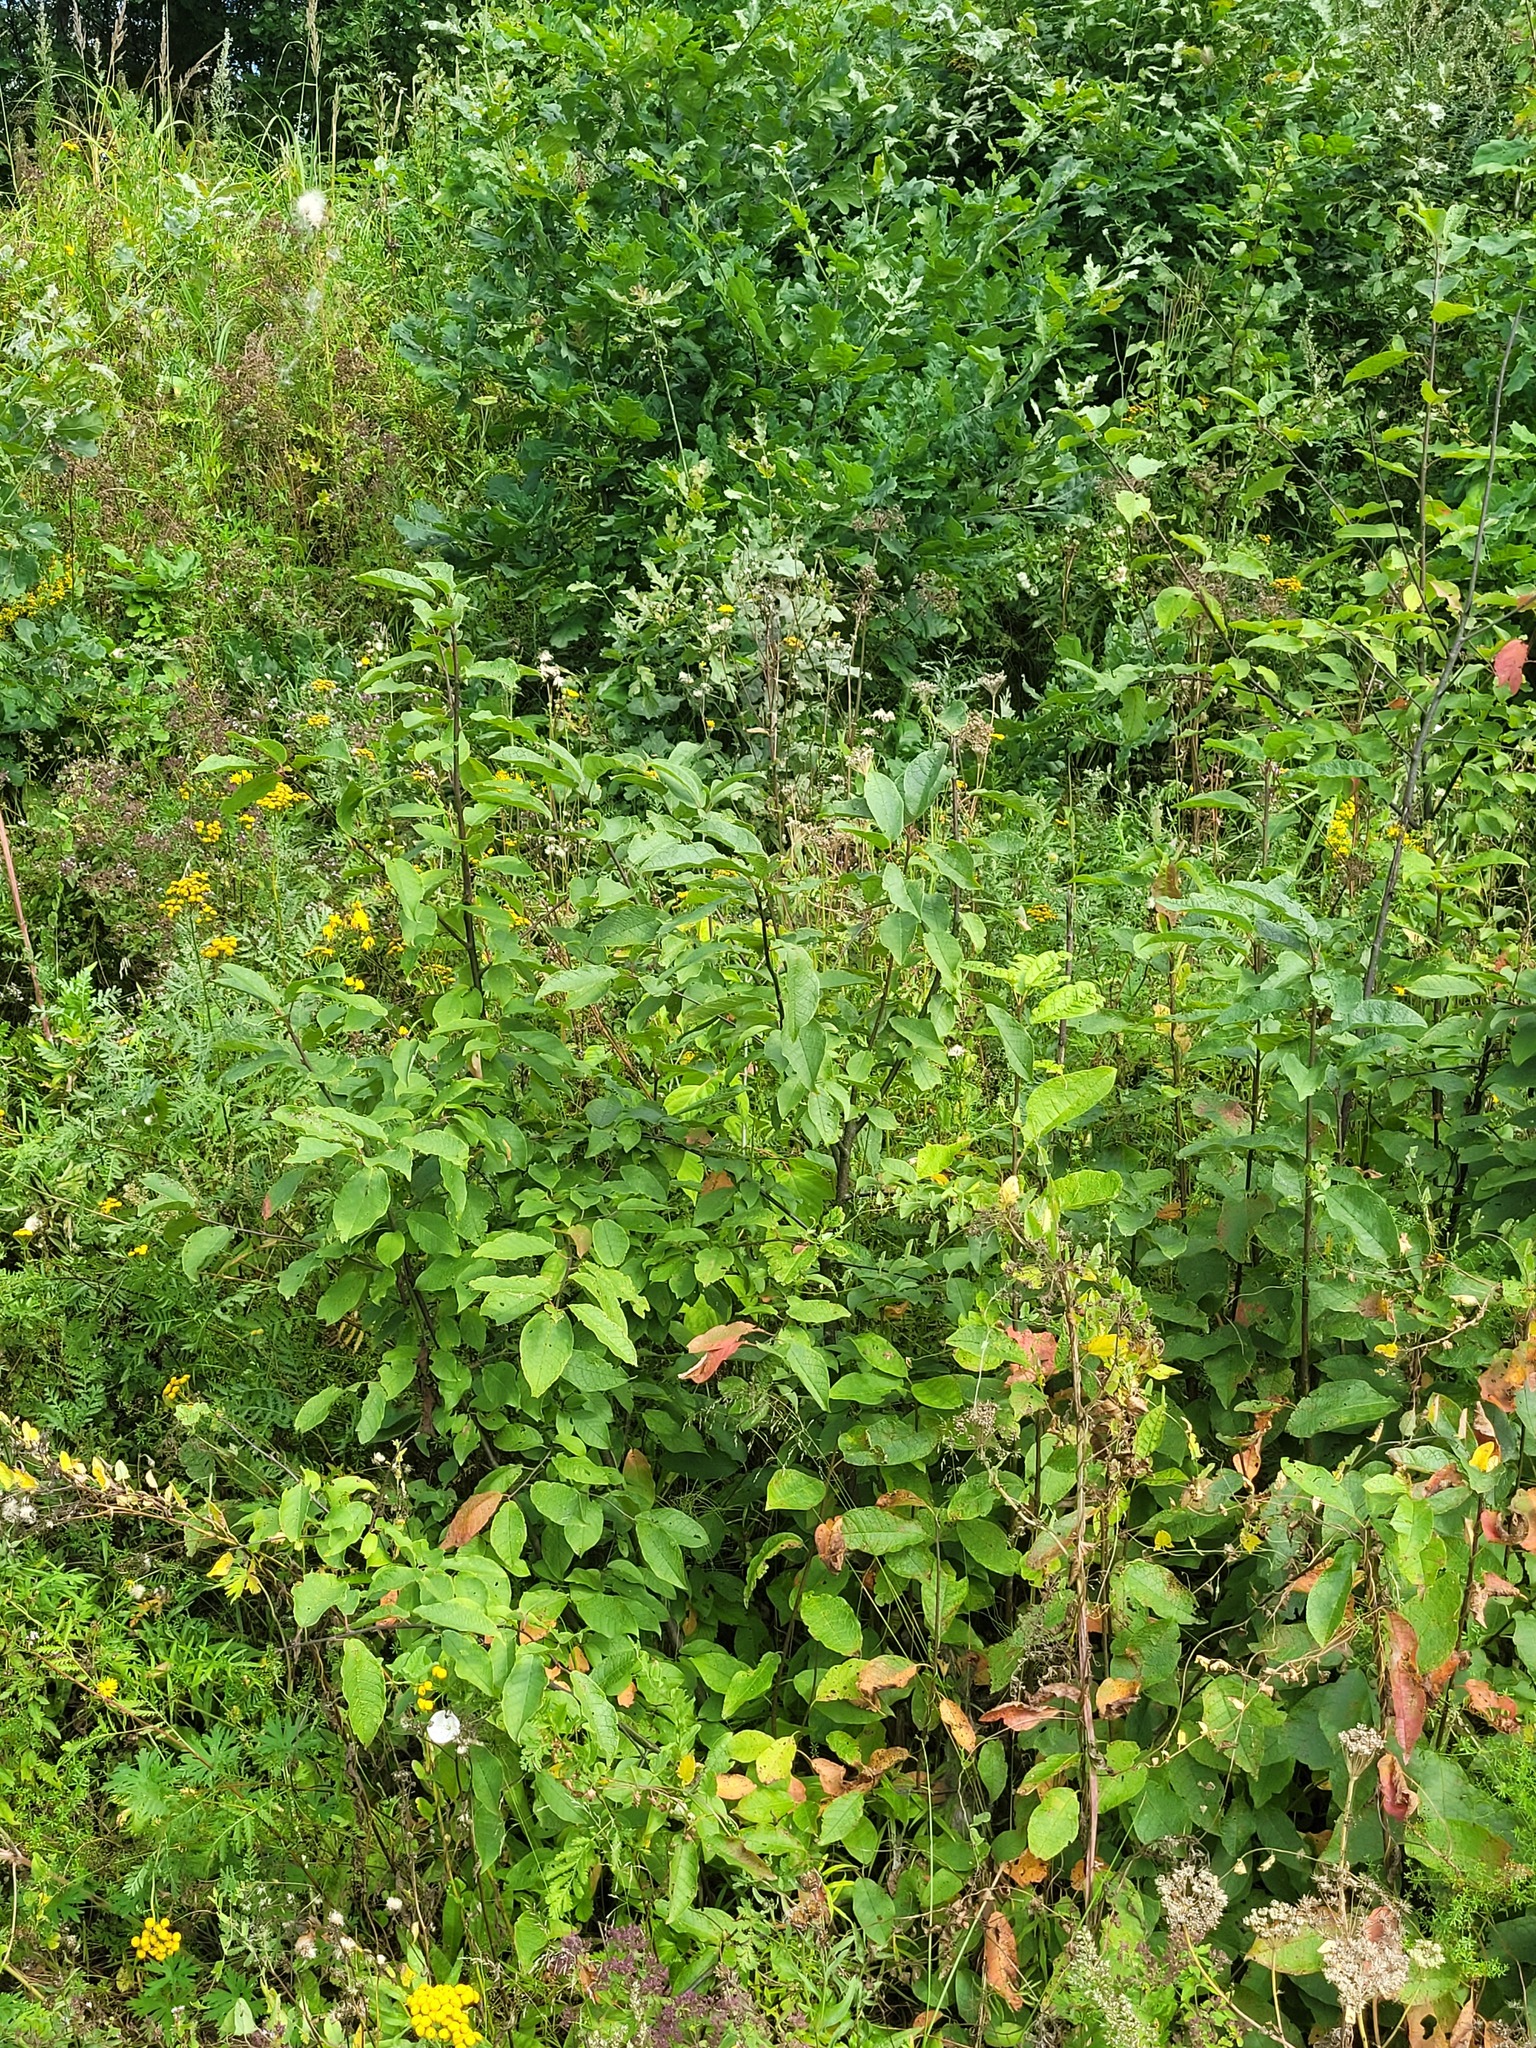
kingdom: Plantae
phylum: Tracheophyta
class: Magnoliopsida
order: Rosales
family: Rosaceae
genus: Prunus
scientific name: Prunus padus
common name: Bird cherry
